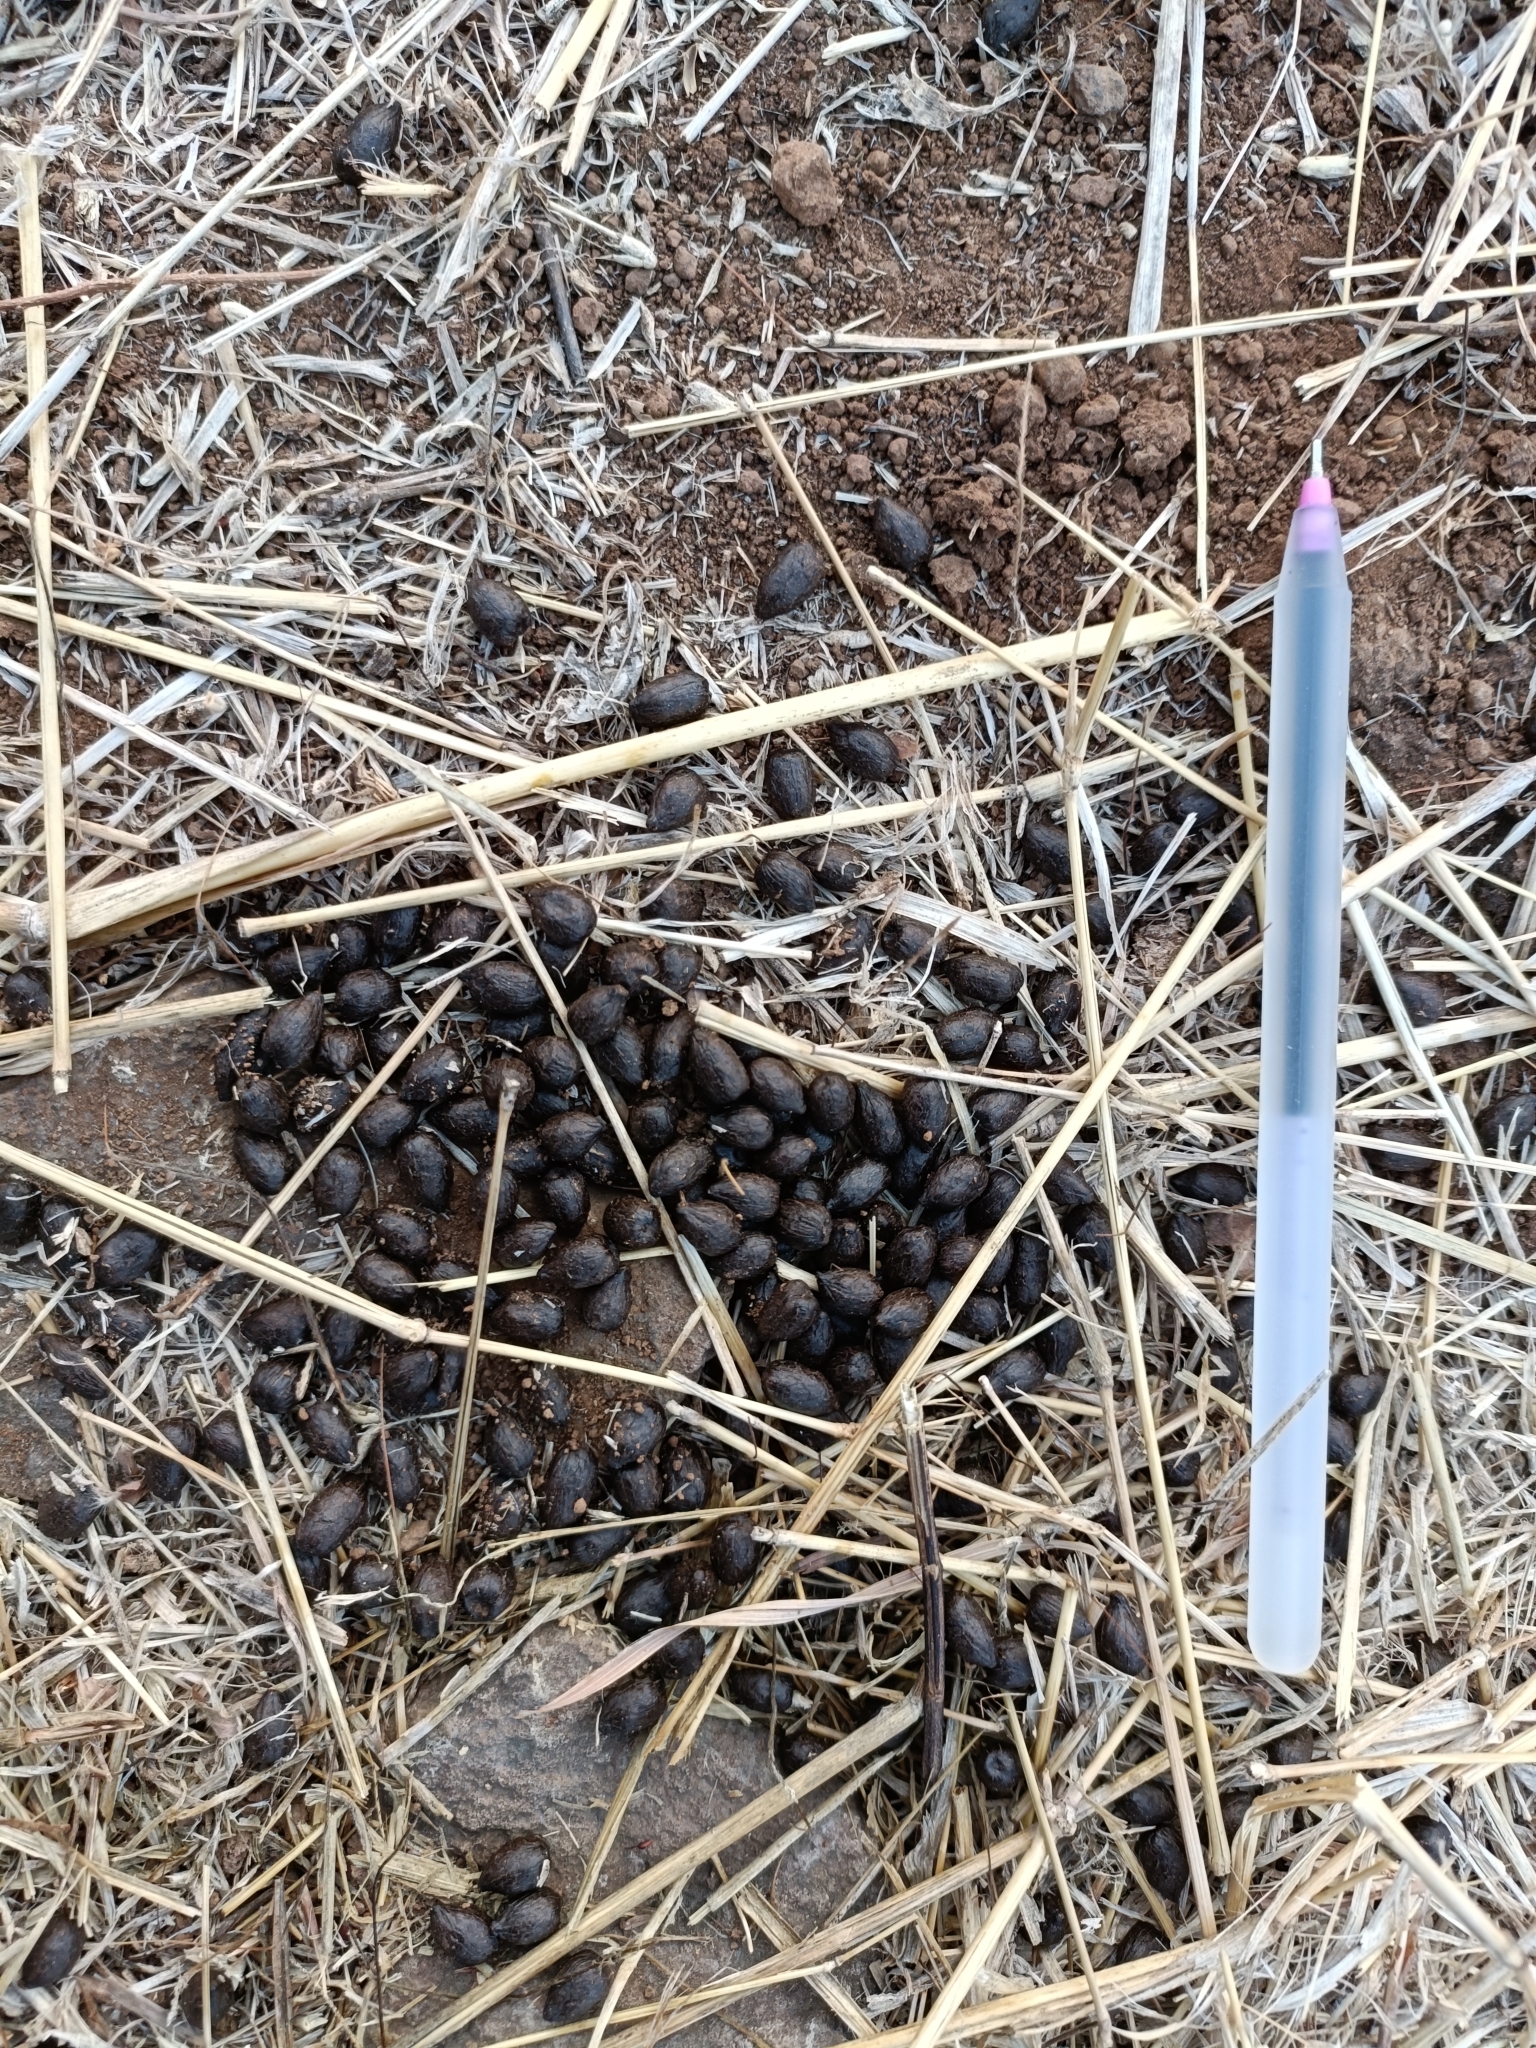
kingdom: Animalia
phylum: Chordata
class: Mammalia
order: Artiodactyla
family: Bovidae
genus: Gazella
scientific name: Gazella bennettii
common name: Indian gazelle
